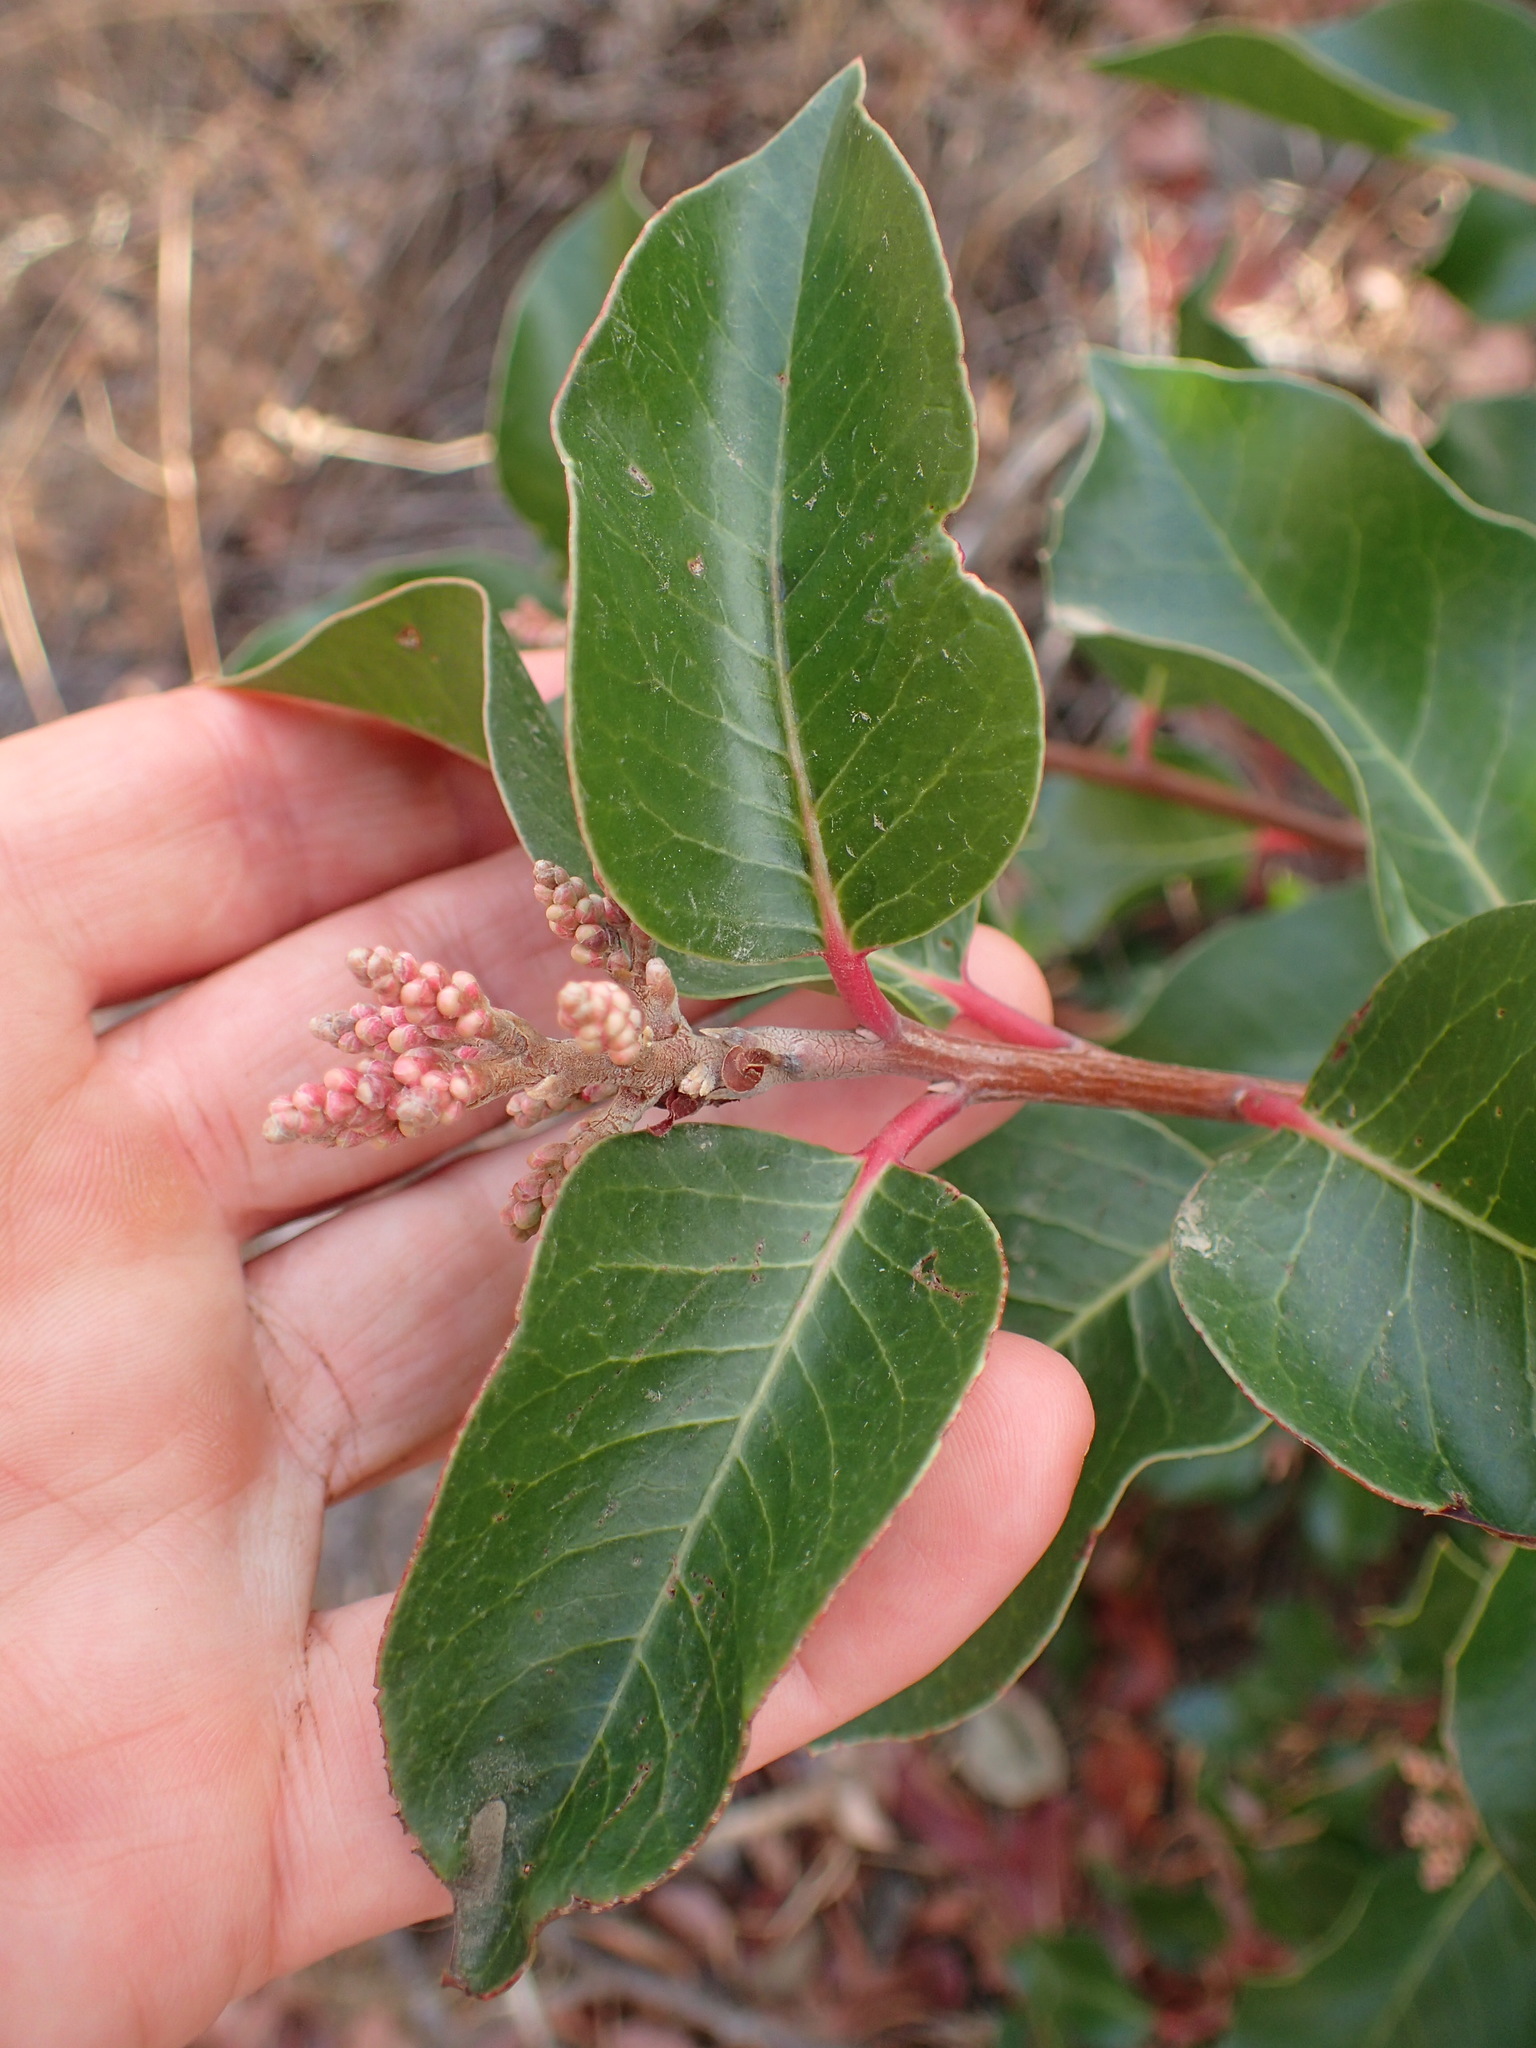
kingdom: Plantae
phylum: Tracheophyta
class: Magnoliopsida
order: Sapindales
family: Anacardiaceae
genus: Rhus
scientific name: Rhus ovata
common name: Sugar sumac
